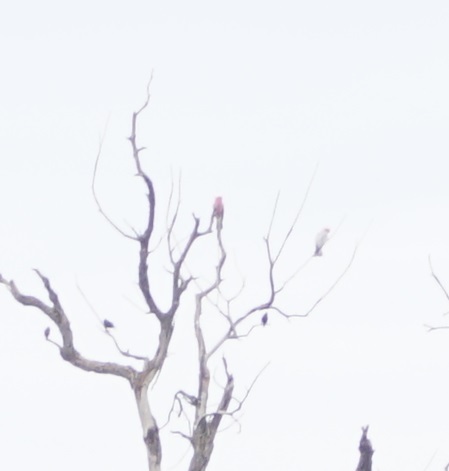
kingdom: Animalia
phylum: Chordata
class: Aves
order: Psittaciformes
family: Psittacidae
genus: Eolophus
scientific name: Eolophus roseicapilla
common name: Galah
